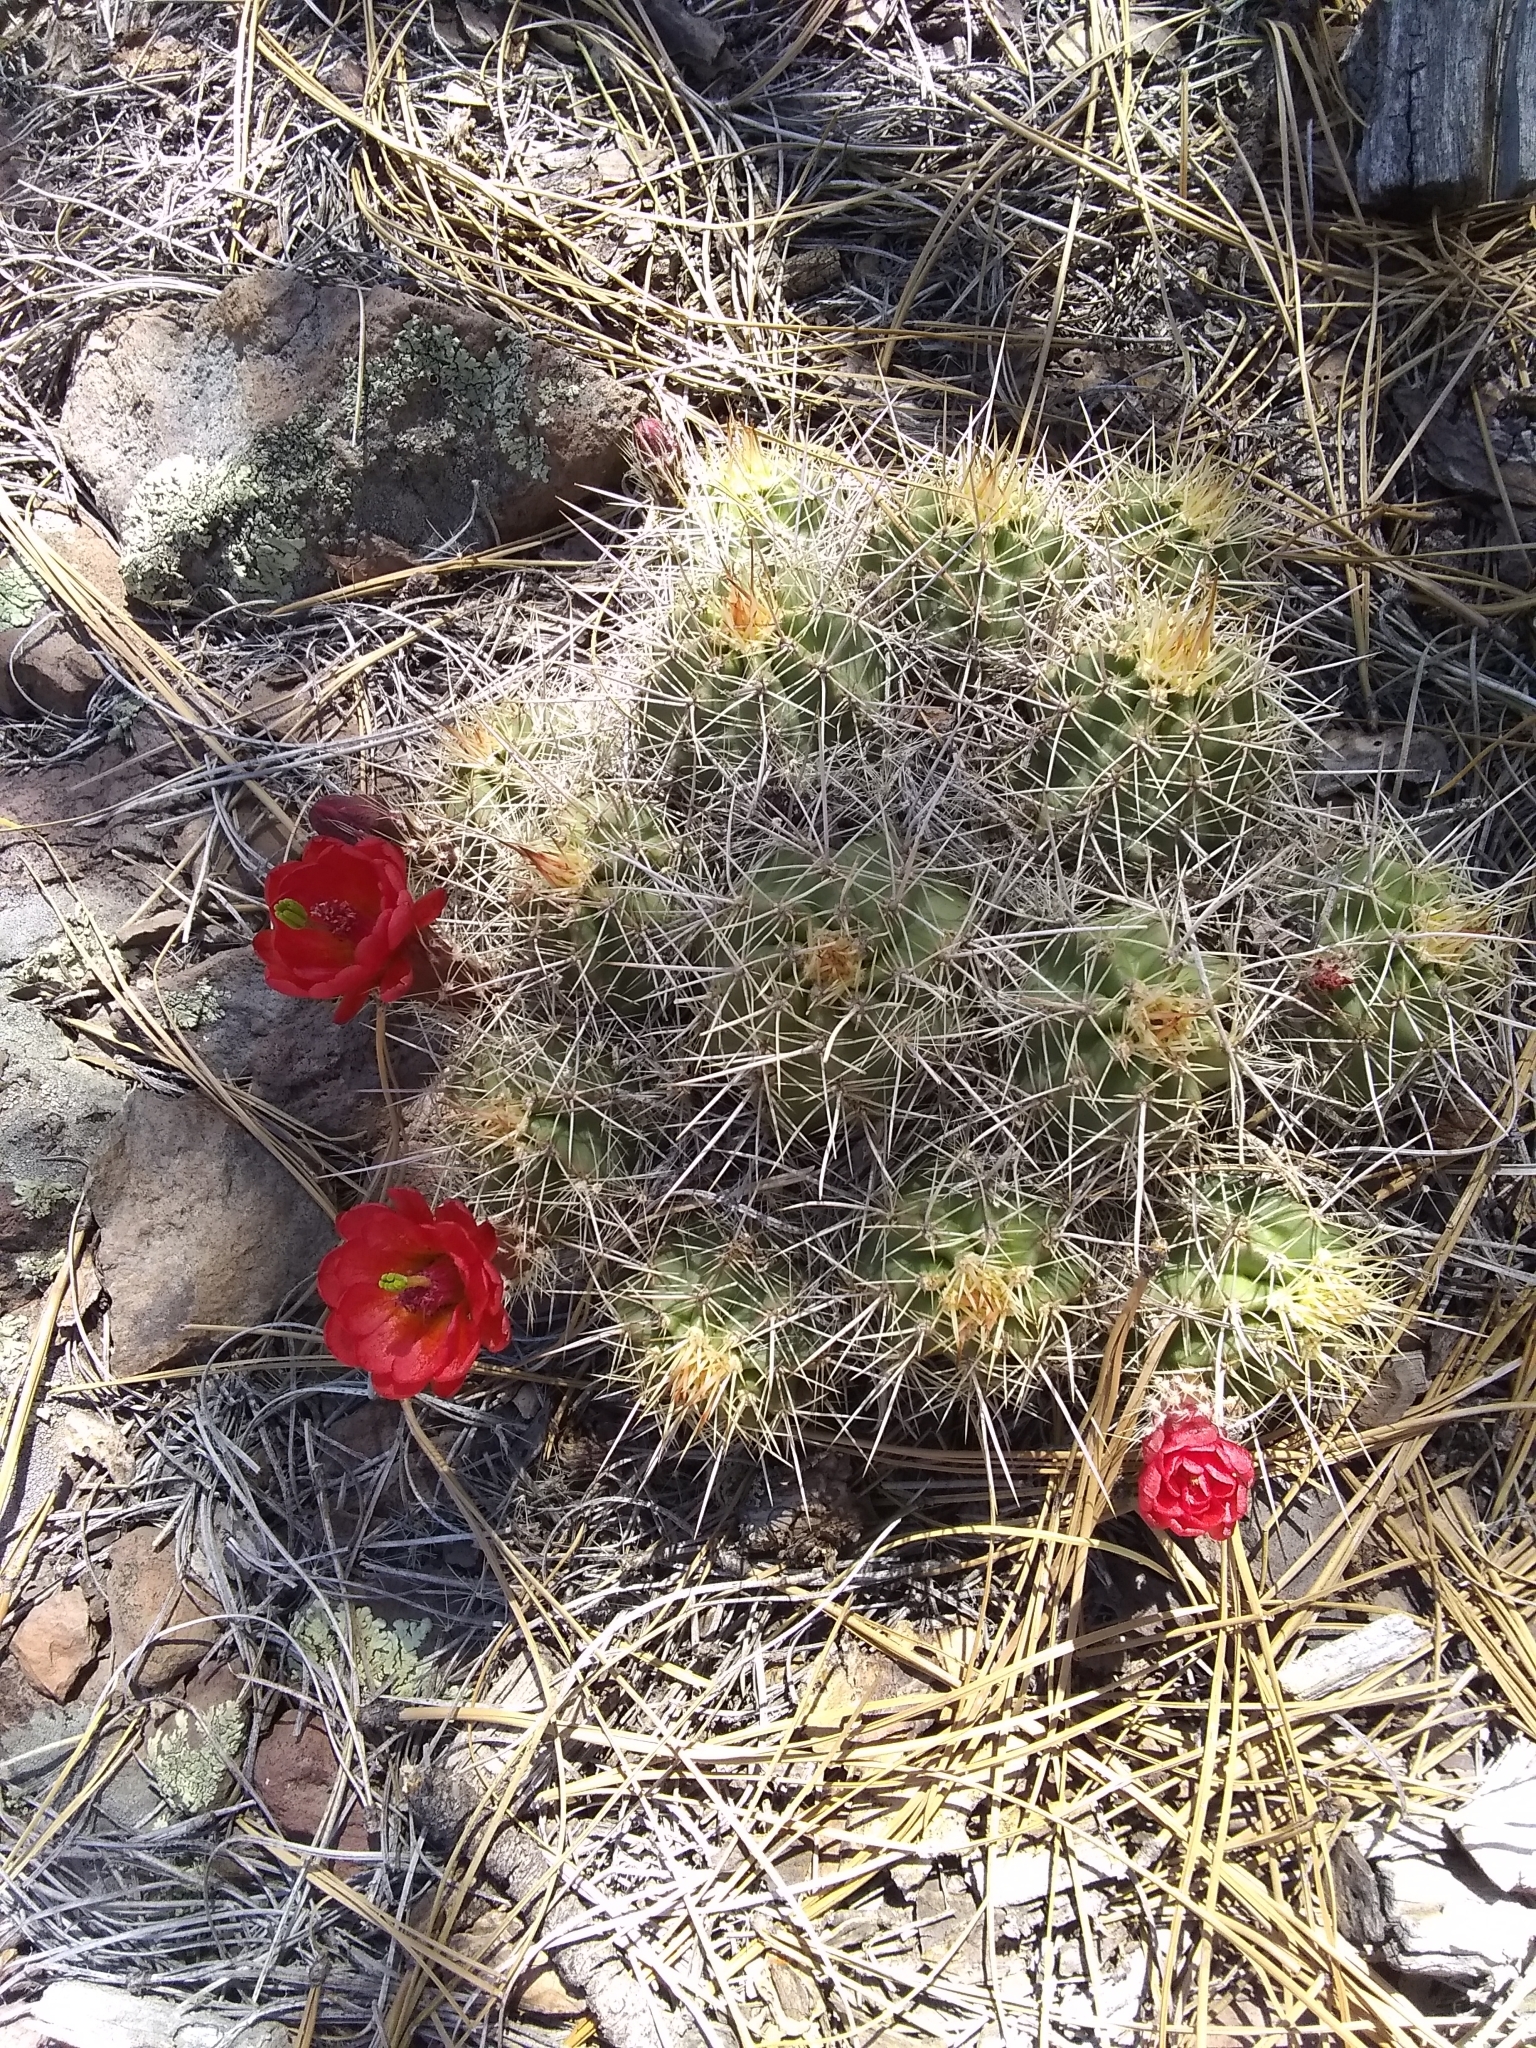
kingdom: Plantae
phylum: Tracheophyta
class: Magnoliopsida
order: Caryophyllales
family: Cactaceae
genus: Echinocereus
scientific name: Echinocereus bakeri
